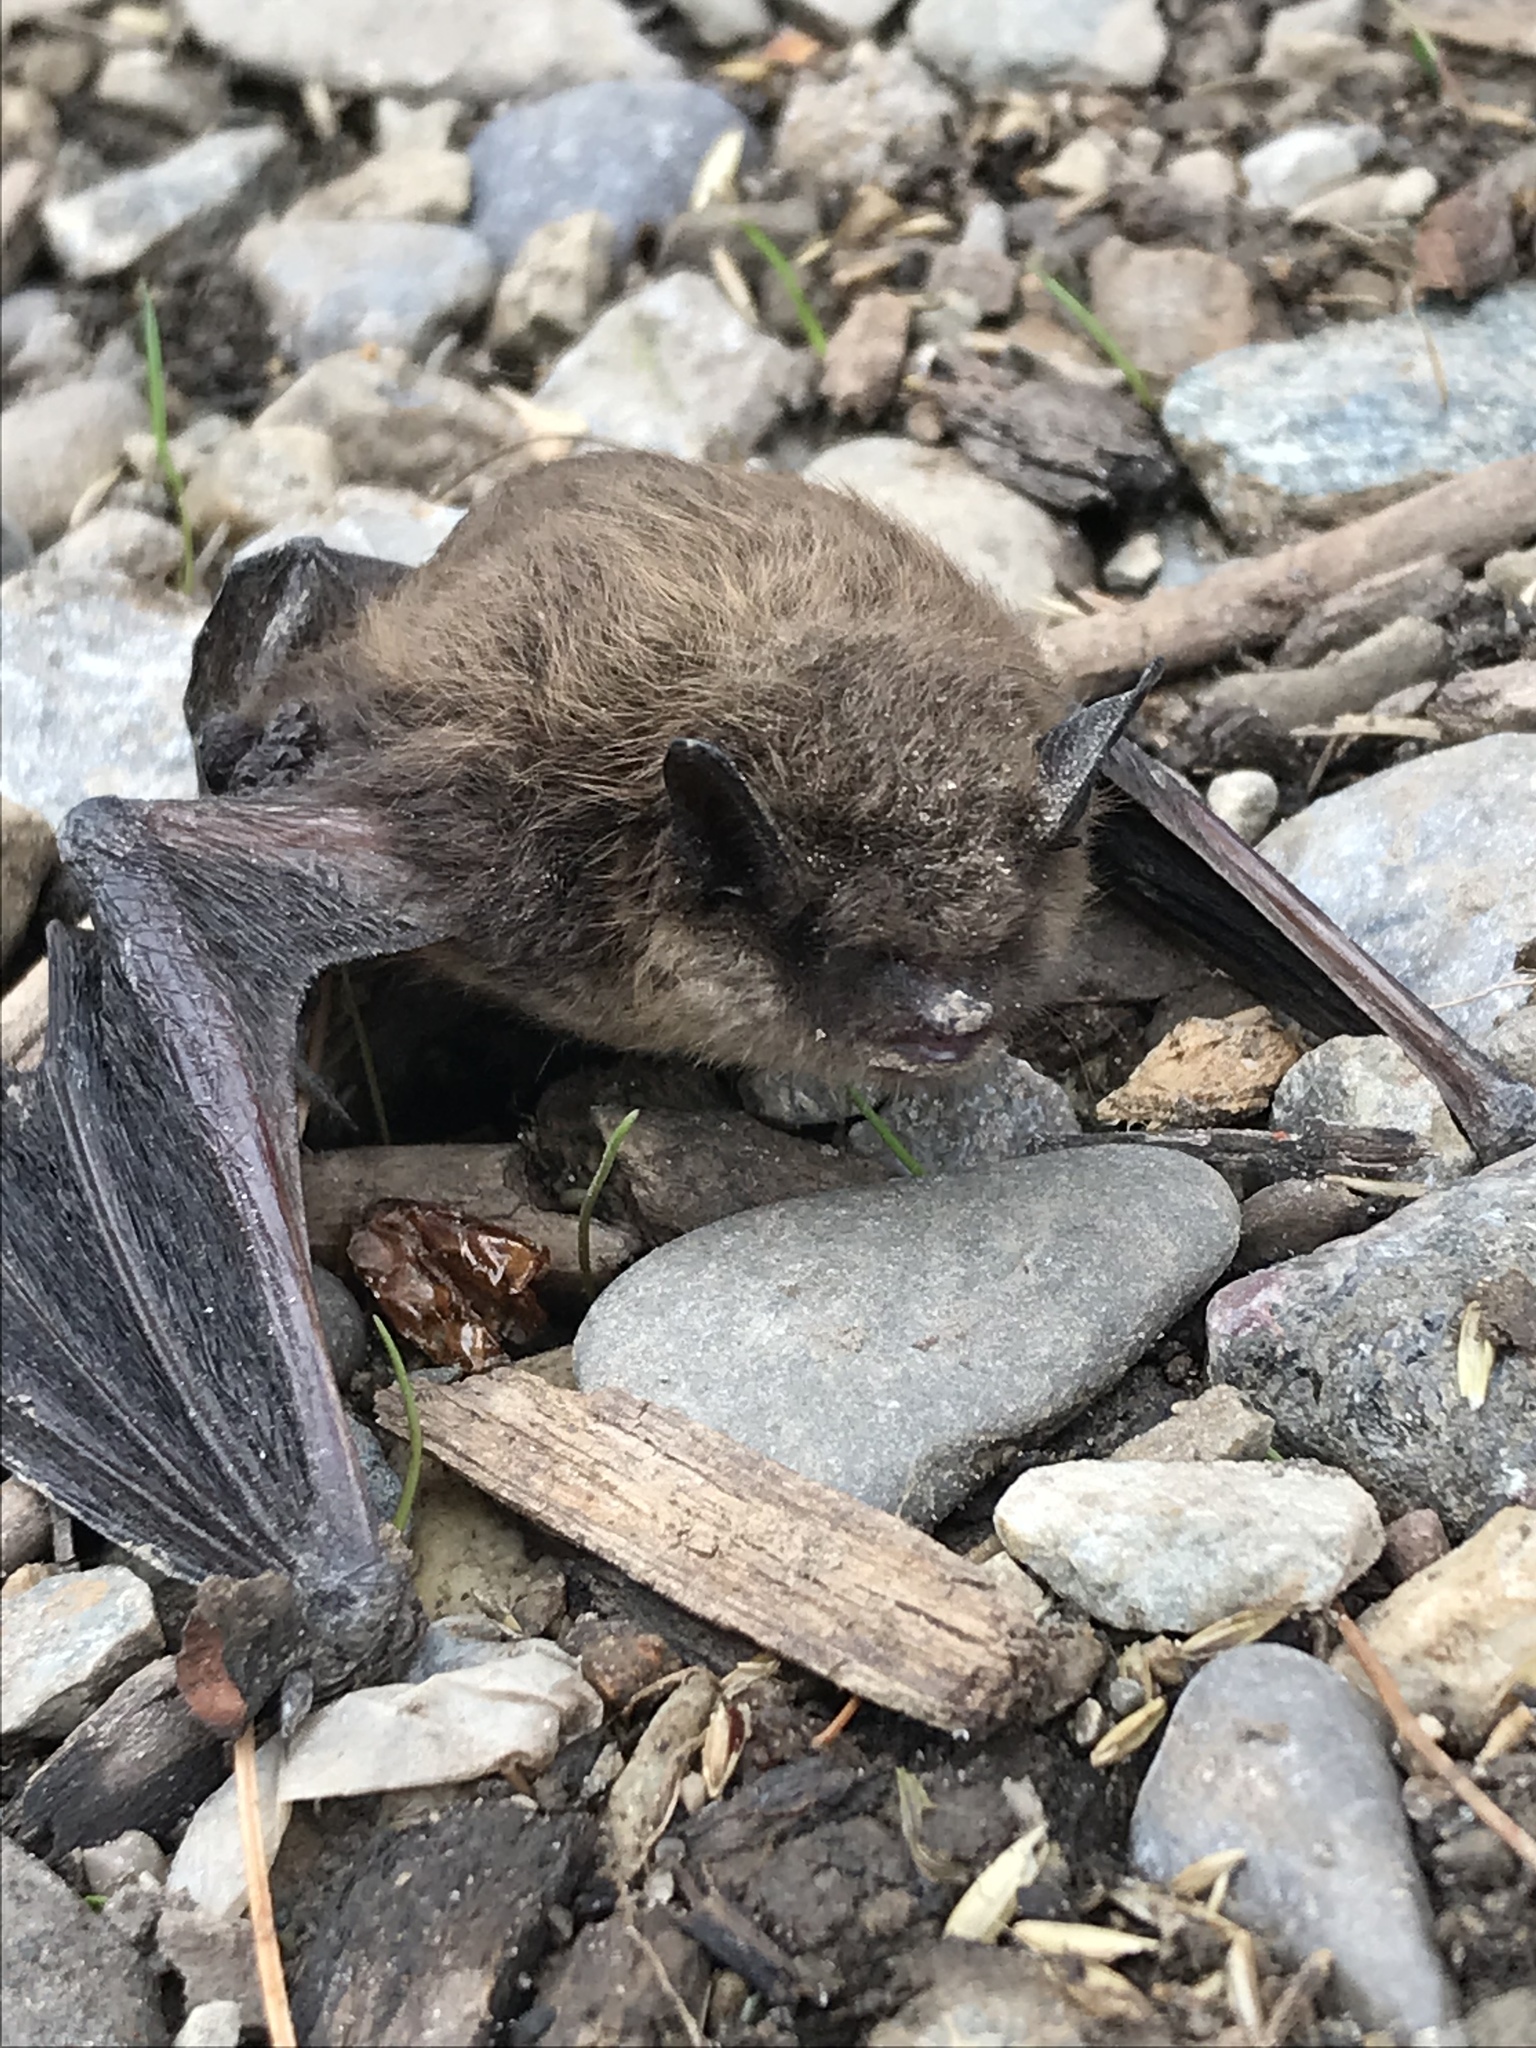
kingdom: Animalia
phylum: Chordata
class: Mammalia
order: Chiroptera
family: Vespertilionidae
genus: Myotis
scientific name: Myotis lucifugus
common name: Little brown bat
